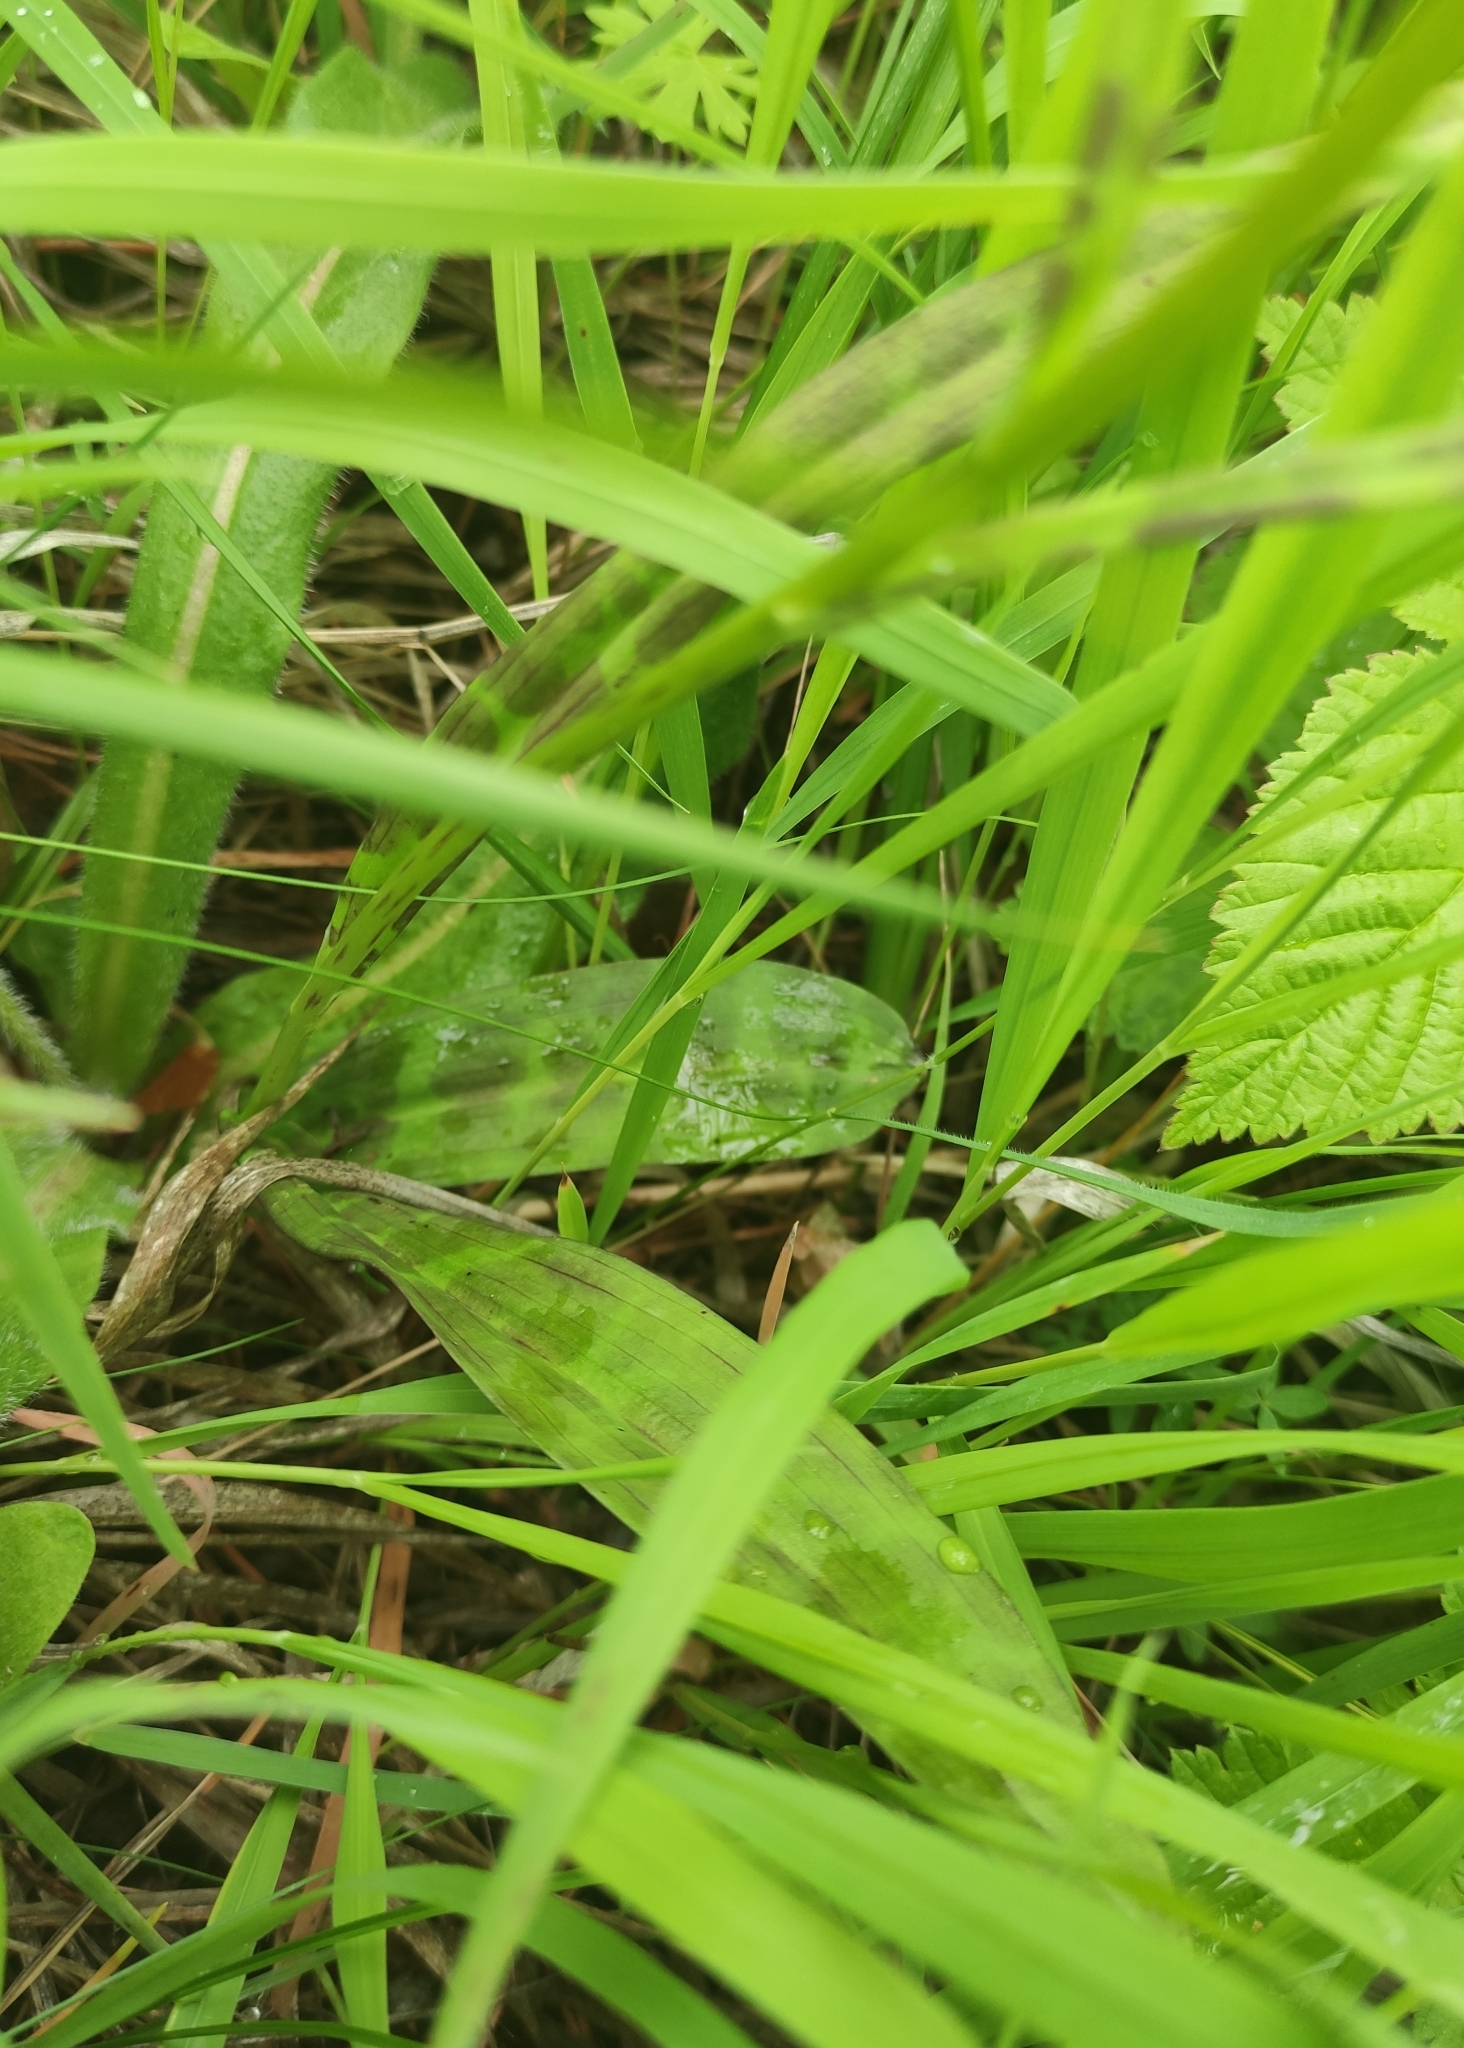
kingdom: Plantae
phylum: Tracheophyta
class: Liliopsida
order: Asparagales
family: Orchidaceae
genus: Dactylorhiza
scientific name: Dactylorhiza maculata
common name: Heath spotted-orchid
